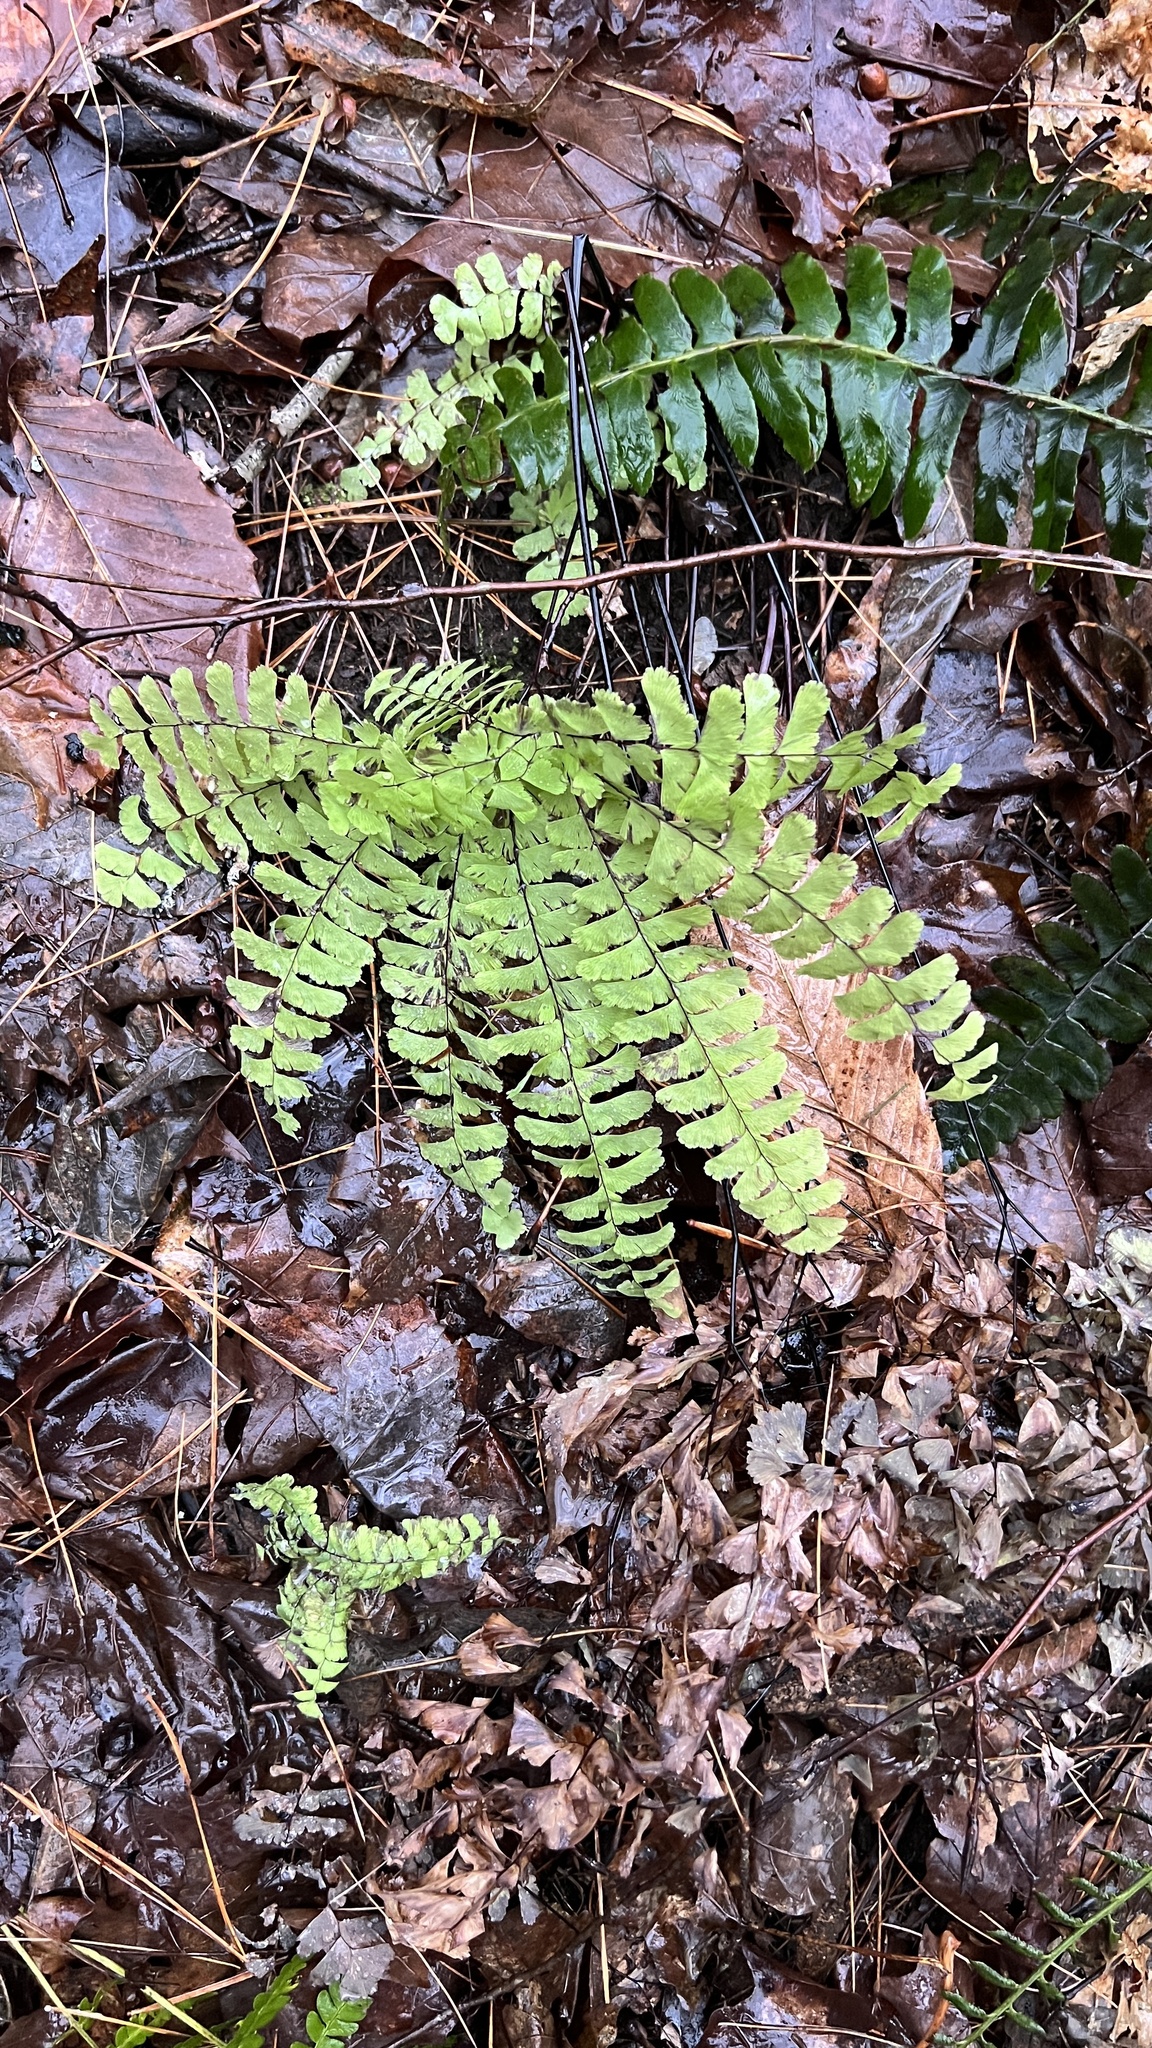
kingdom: Plantae
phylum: Tracheophyta
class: Polypodiopsida
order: Polypodiales
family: Pteridaceae
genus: Adiantum
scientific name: Adiantum pedatum
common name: Five-finger fern
